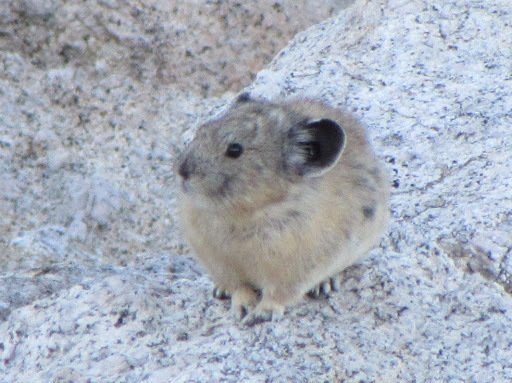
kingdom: Animalia
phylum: Chordata
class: Mammalia
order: Lagomorpha
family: Ochotonidae
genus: Ochotona
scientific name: Ochotona princeps
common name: American pika
